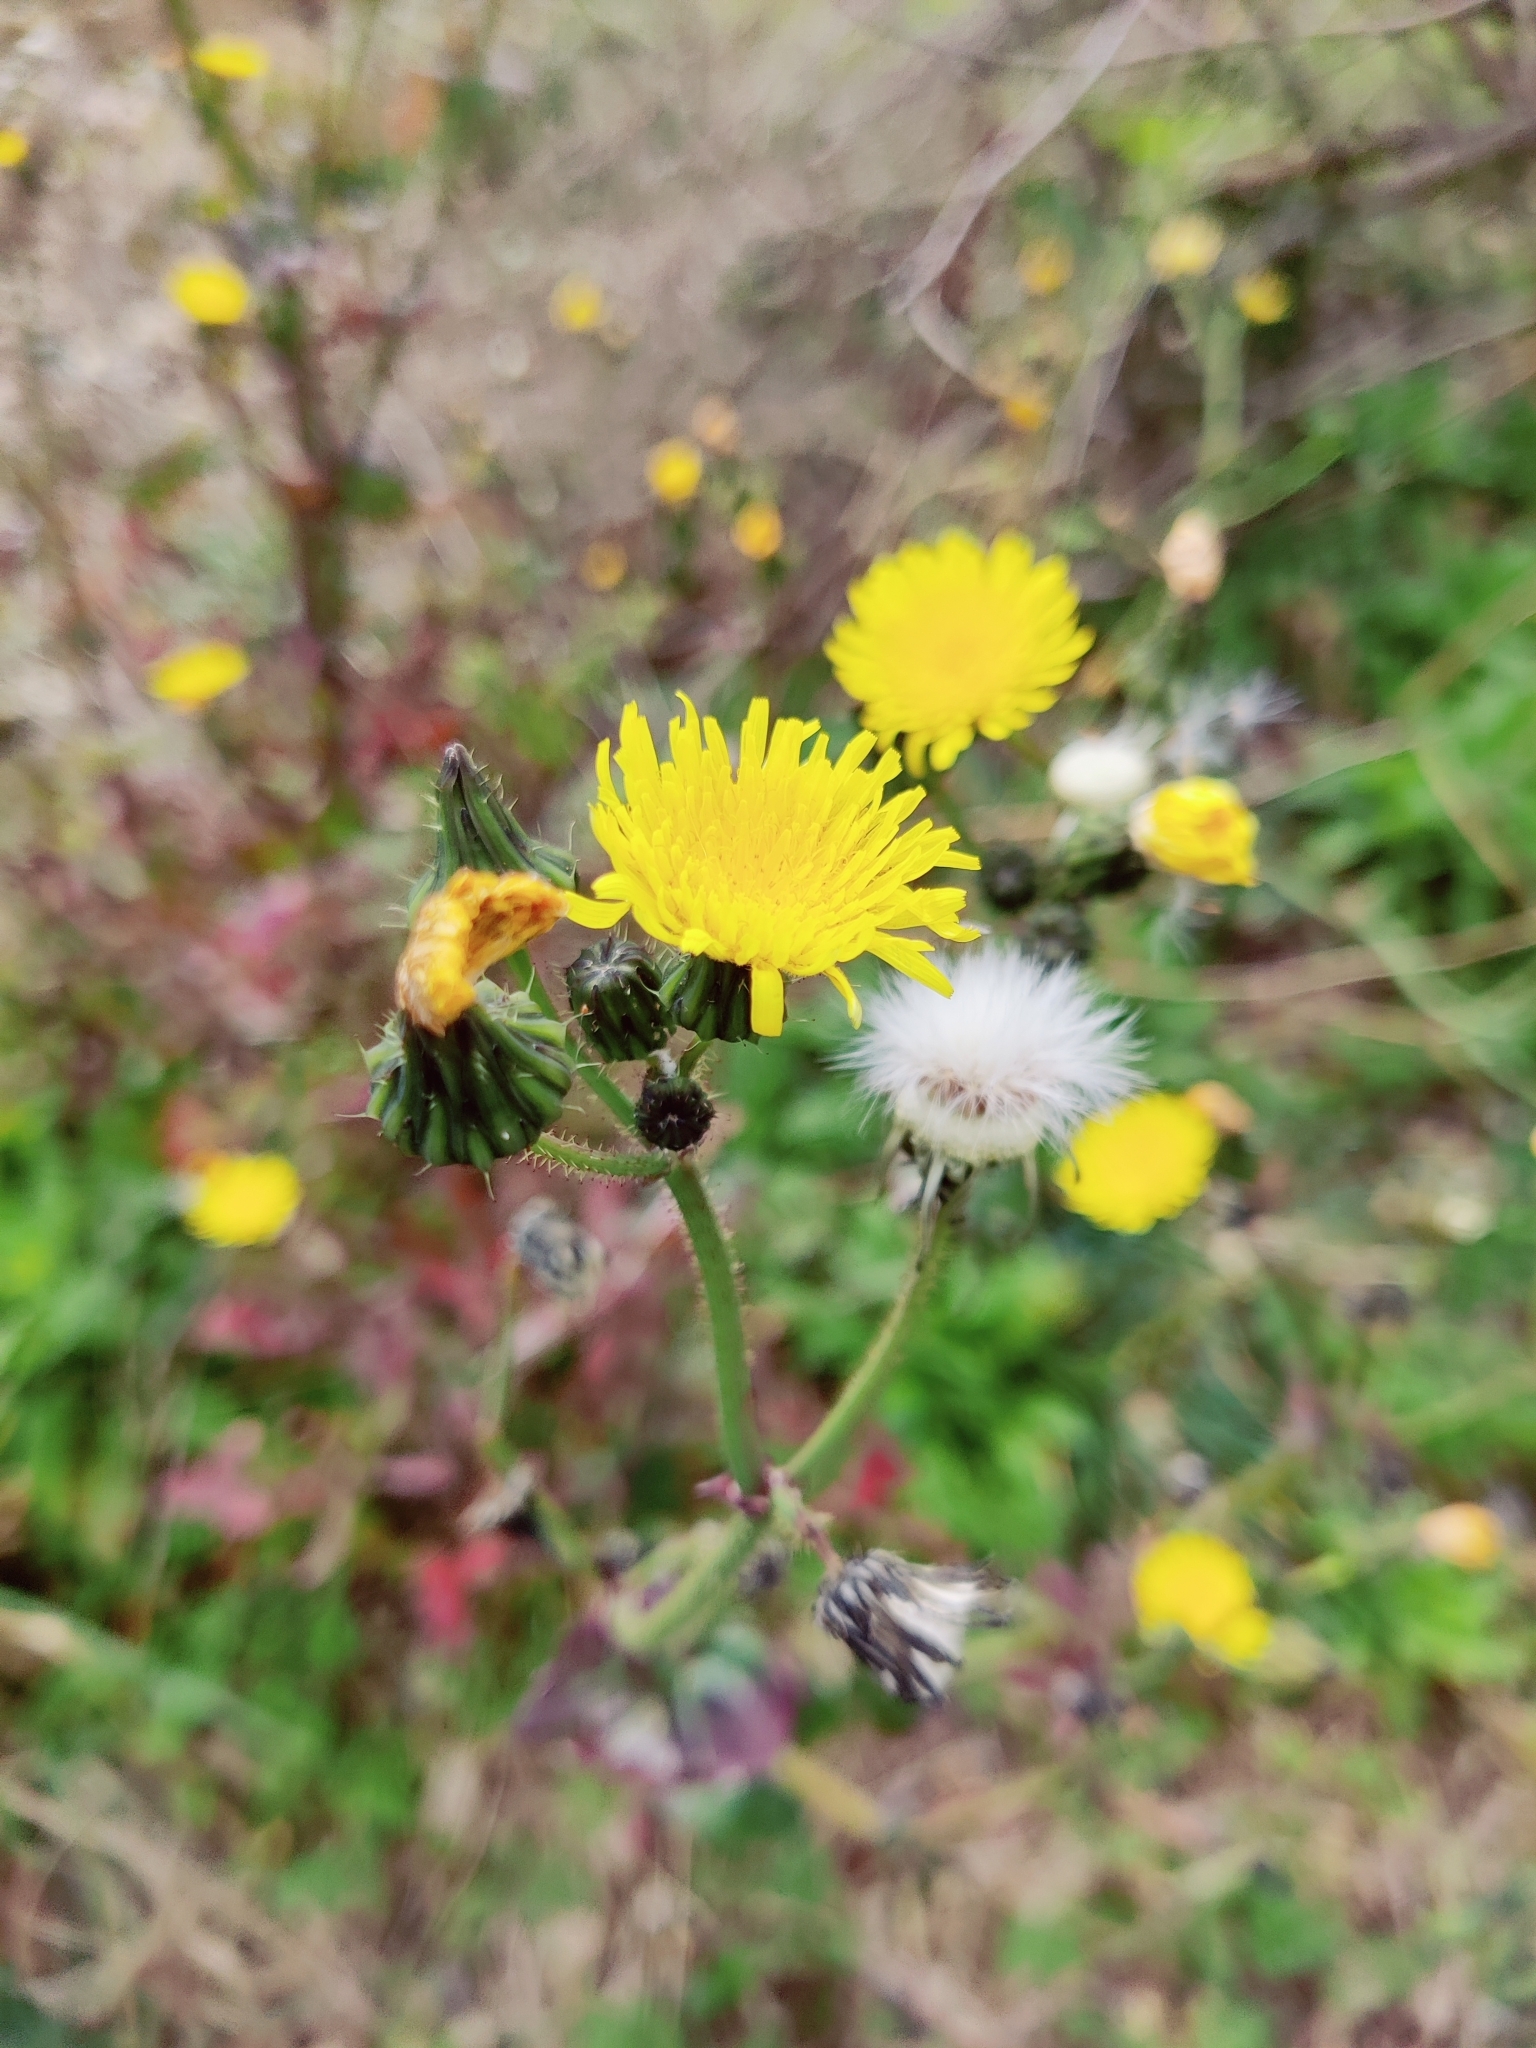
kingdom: Plantae
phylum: Tracheophyta
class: Magnoliopsida
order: Asterales
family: Asteraceae
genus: Sonchus
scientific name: Sonchus oleraceus
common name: Common sowthistle
